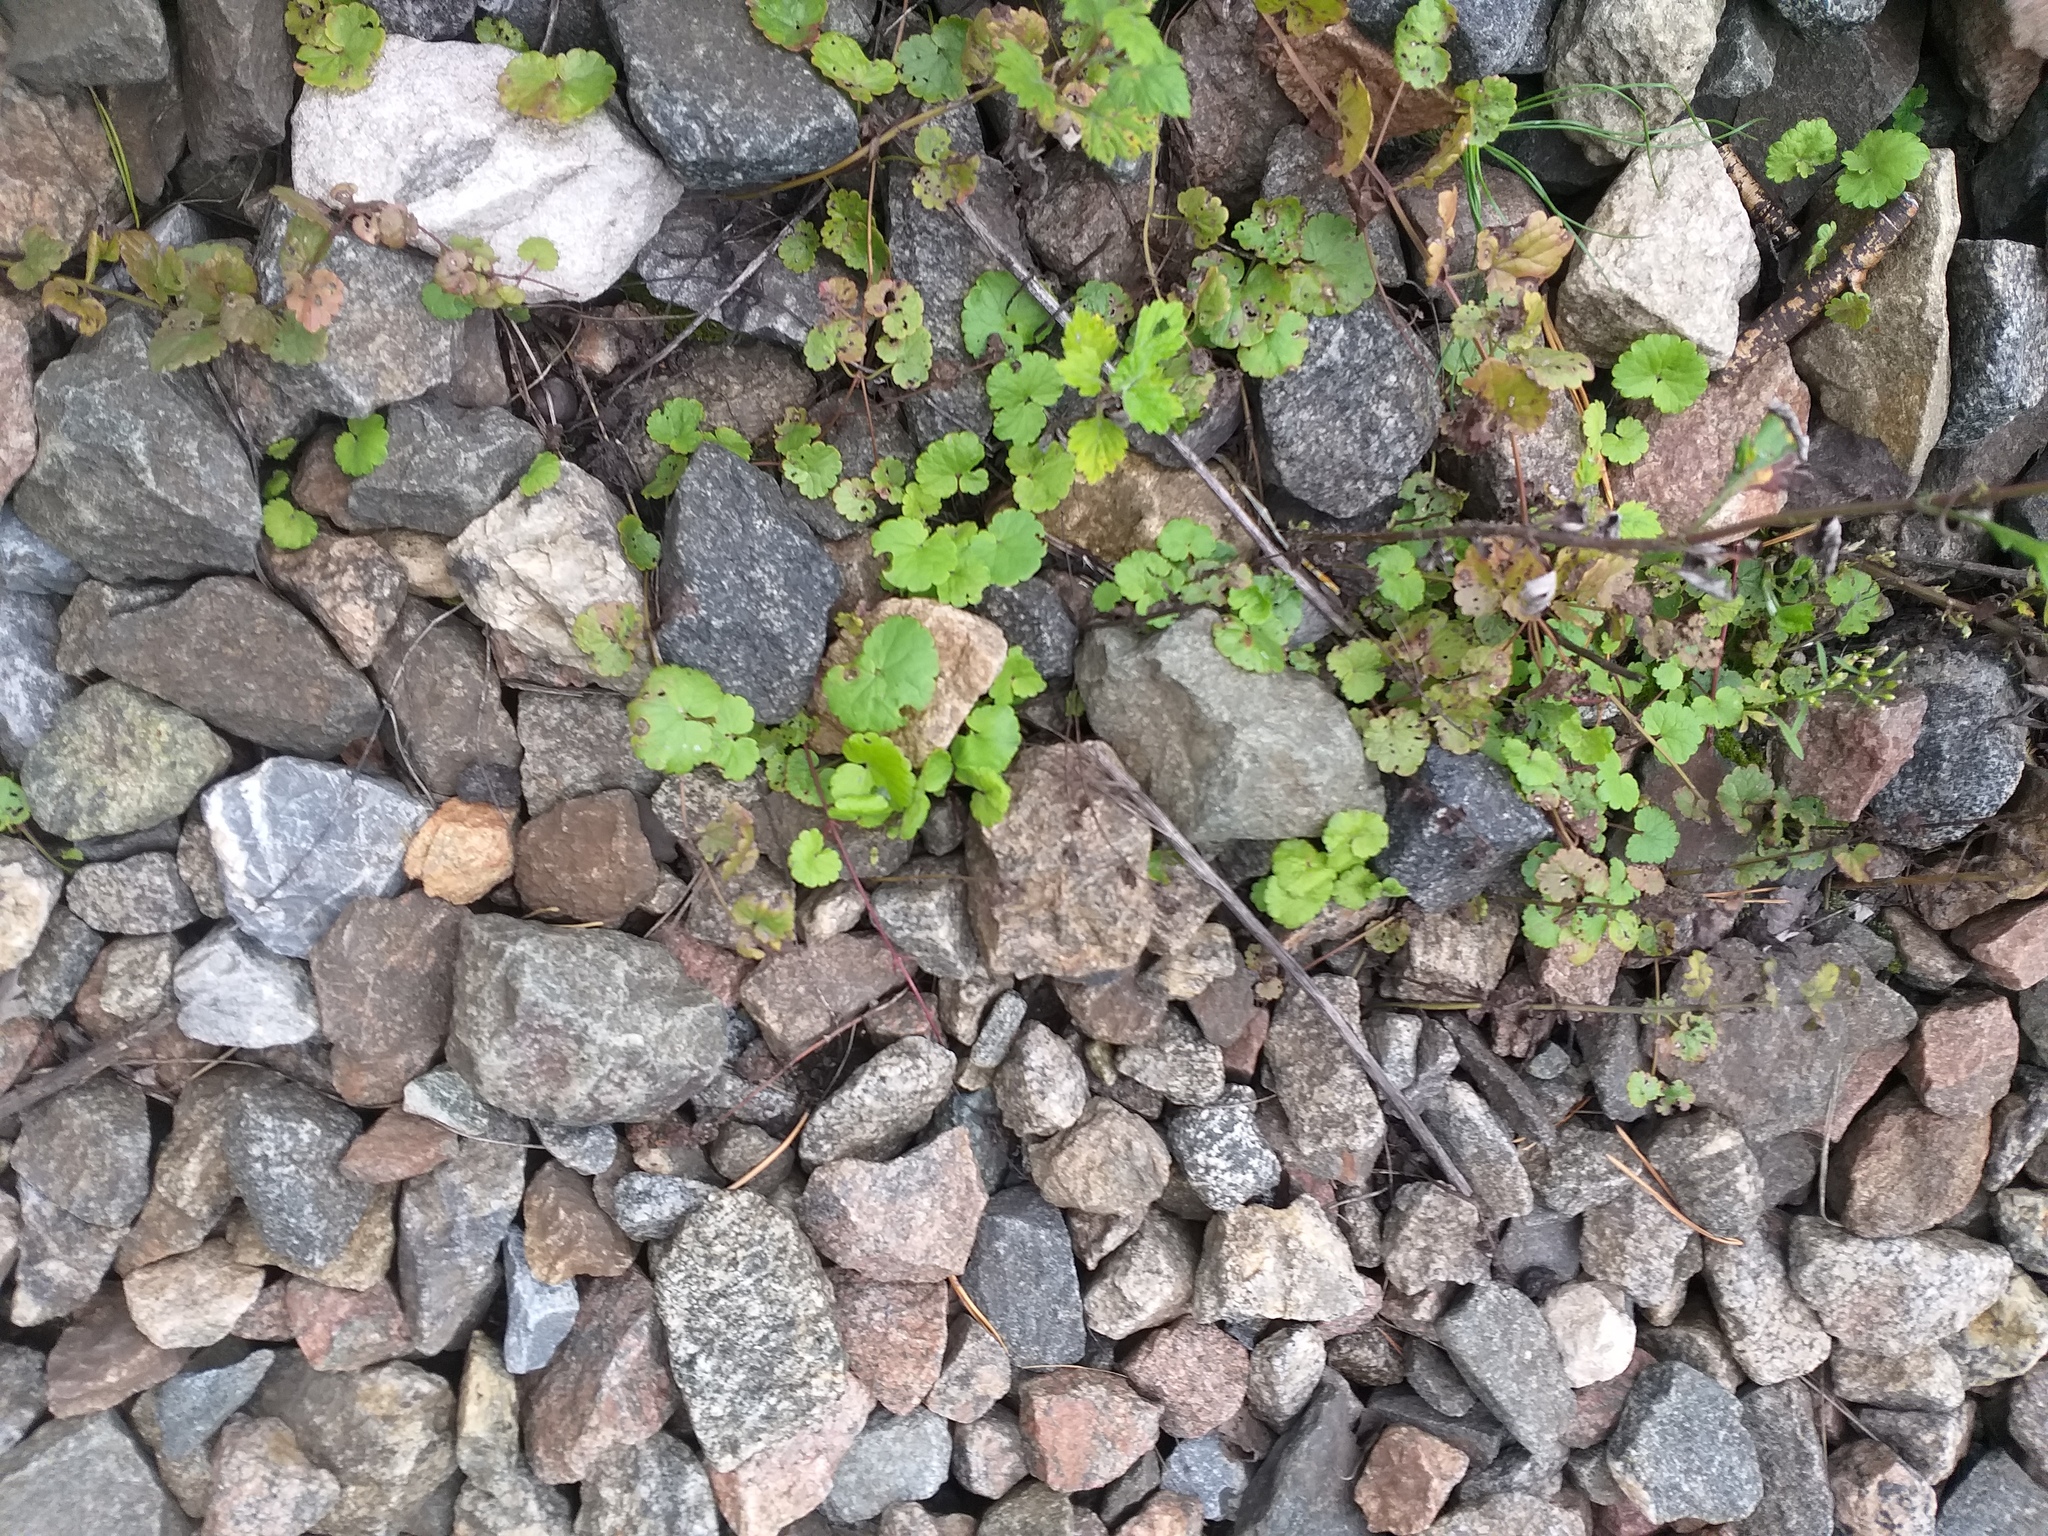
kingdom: Plantae
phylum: Tracheophyta
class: Magnoliopsida
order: Lamiales
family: Lamiaceae
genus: Glechoma
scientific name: Glechoma hederacea
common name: Ground ivy
